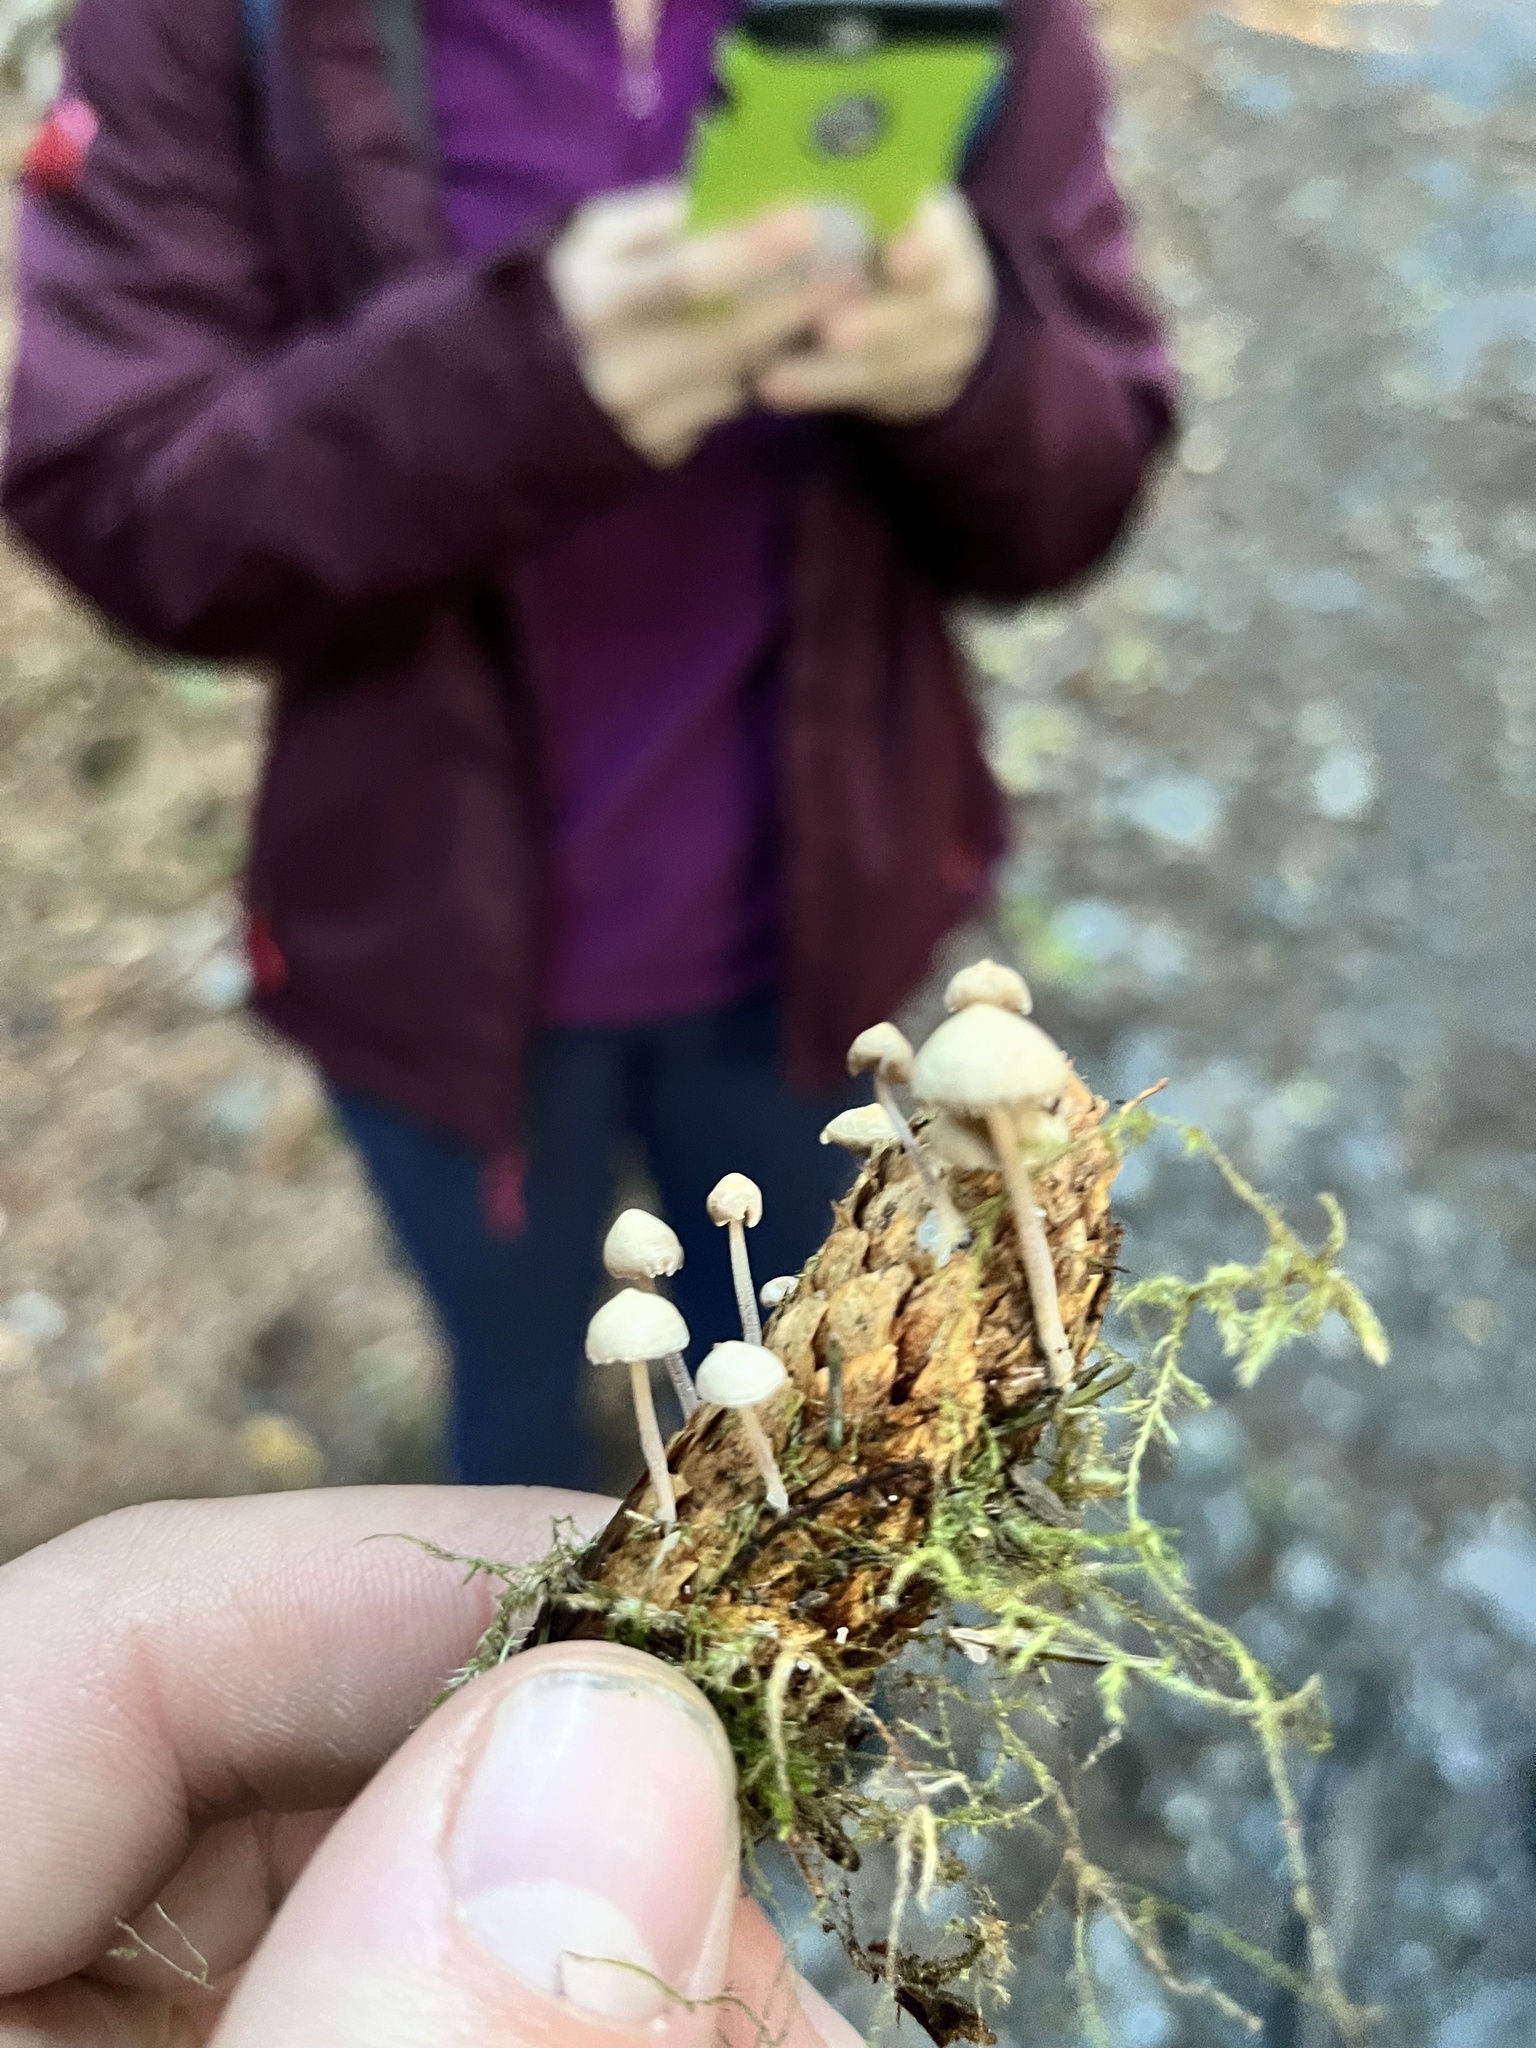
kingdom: Fungi
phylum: Basidiomycota
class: Agaricomycetes
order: Agaricales
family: Physalacriaceae
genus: Strobilurus
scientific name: Strobilurus trullisatus
